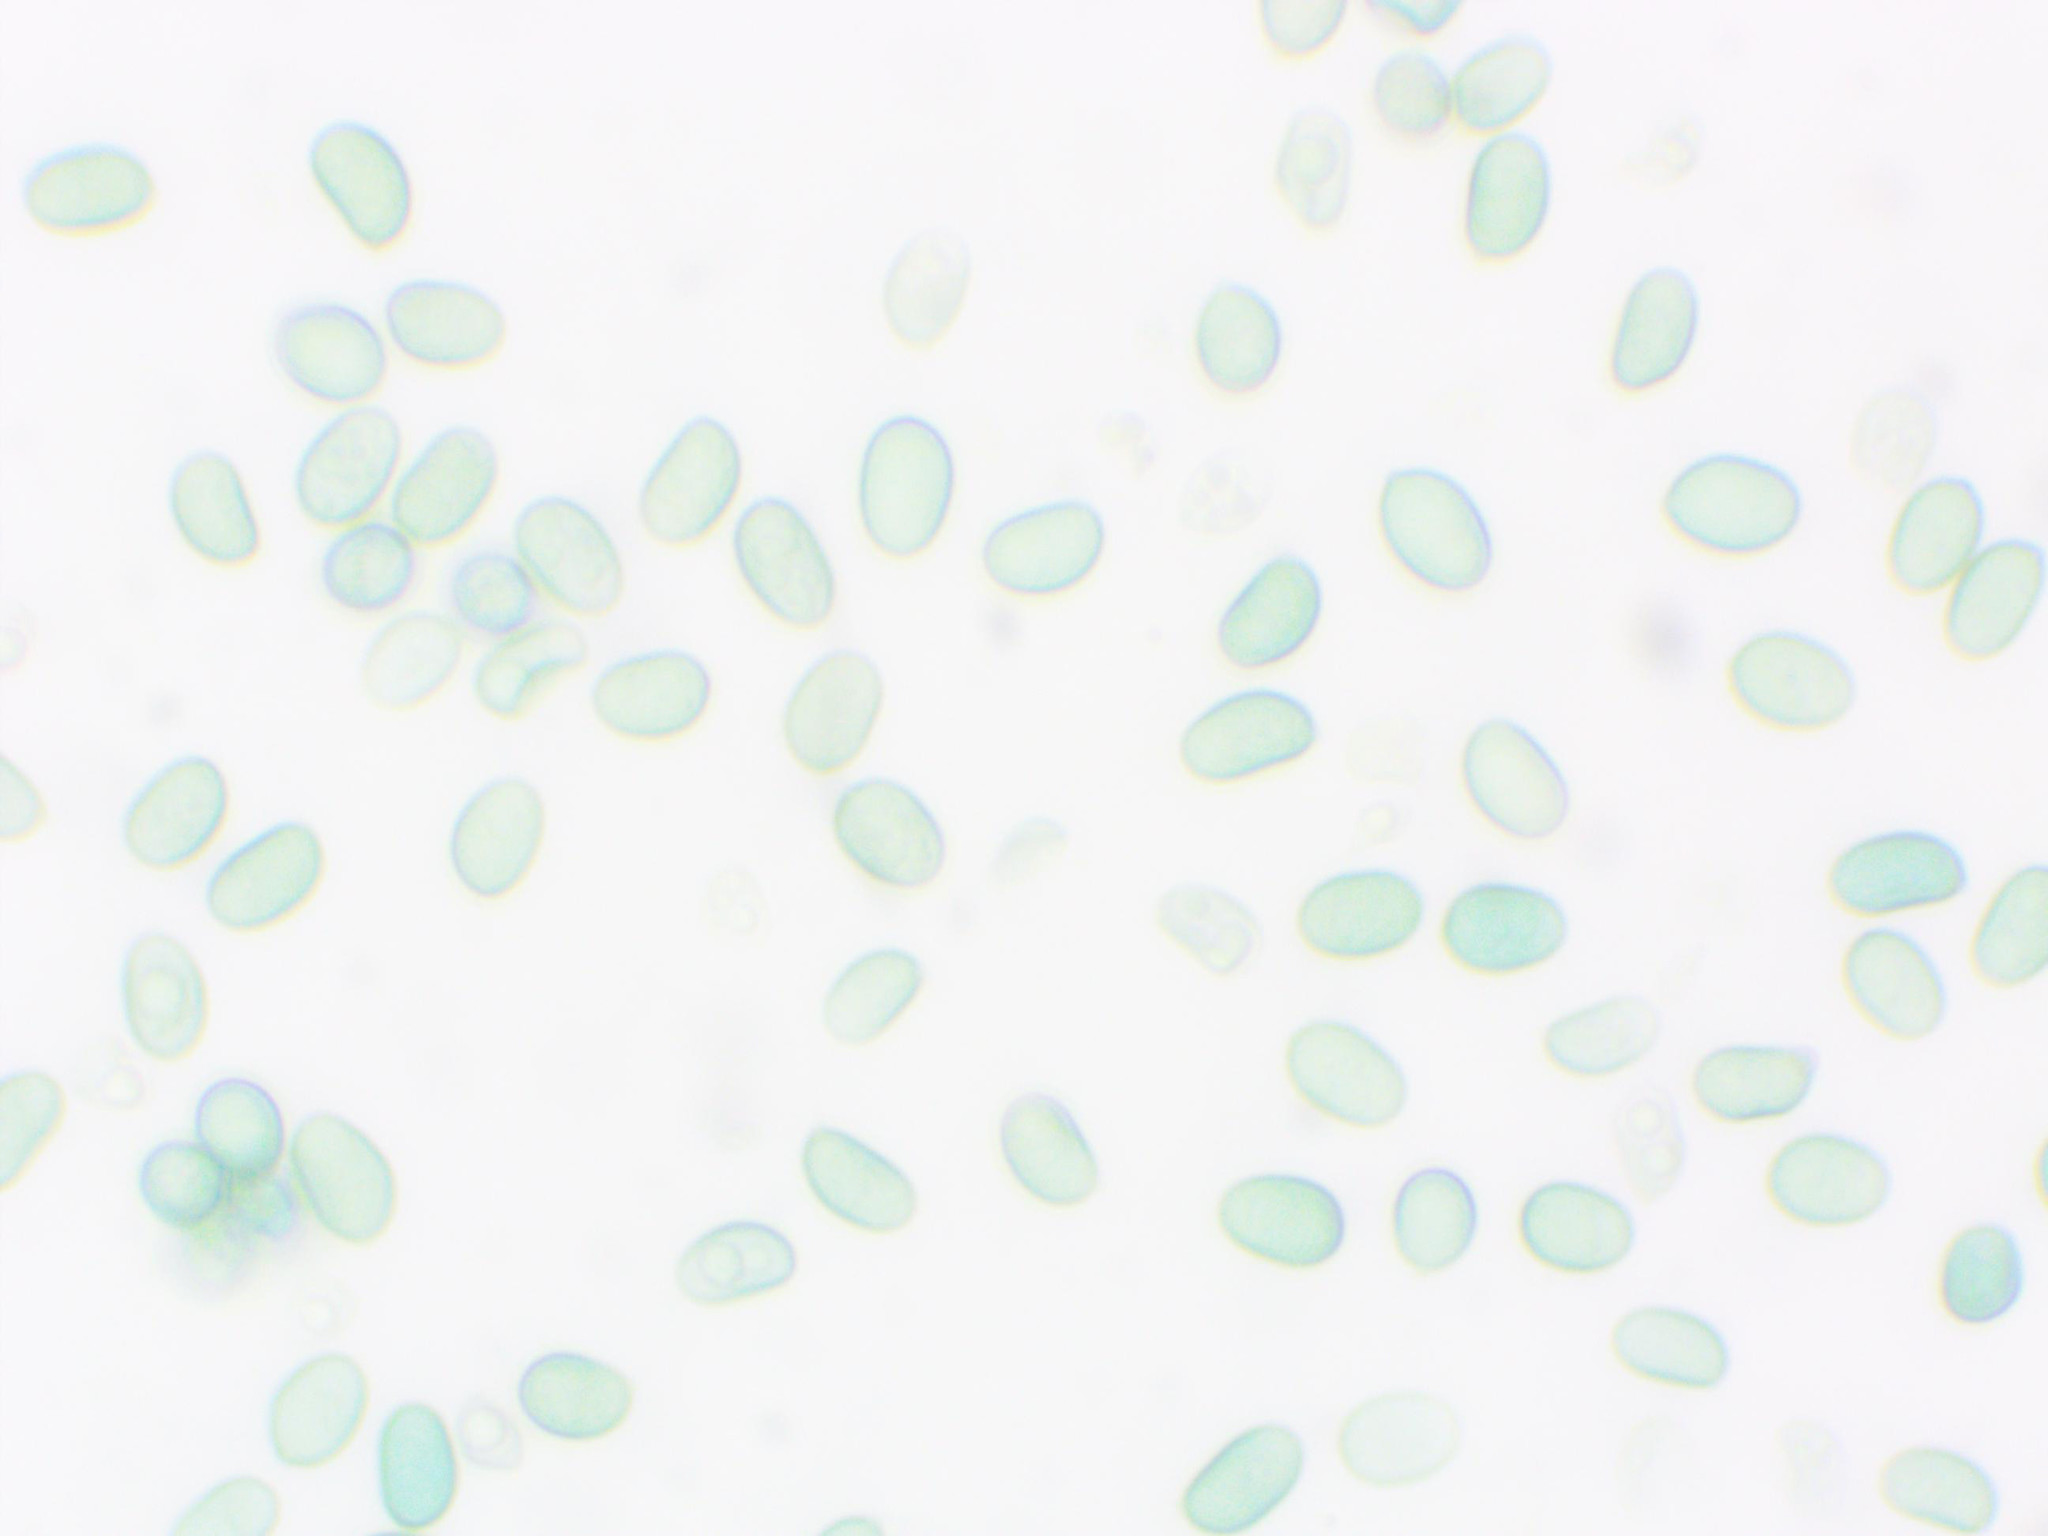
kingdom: Fungi
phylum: Basidiomycota
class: Agaricomycetes
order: Agaricales
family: Tubariaceae
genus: Tubaria
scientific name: Tubaria furfuracea
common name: Scurfy twiglet
